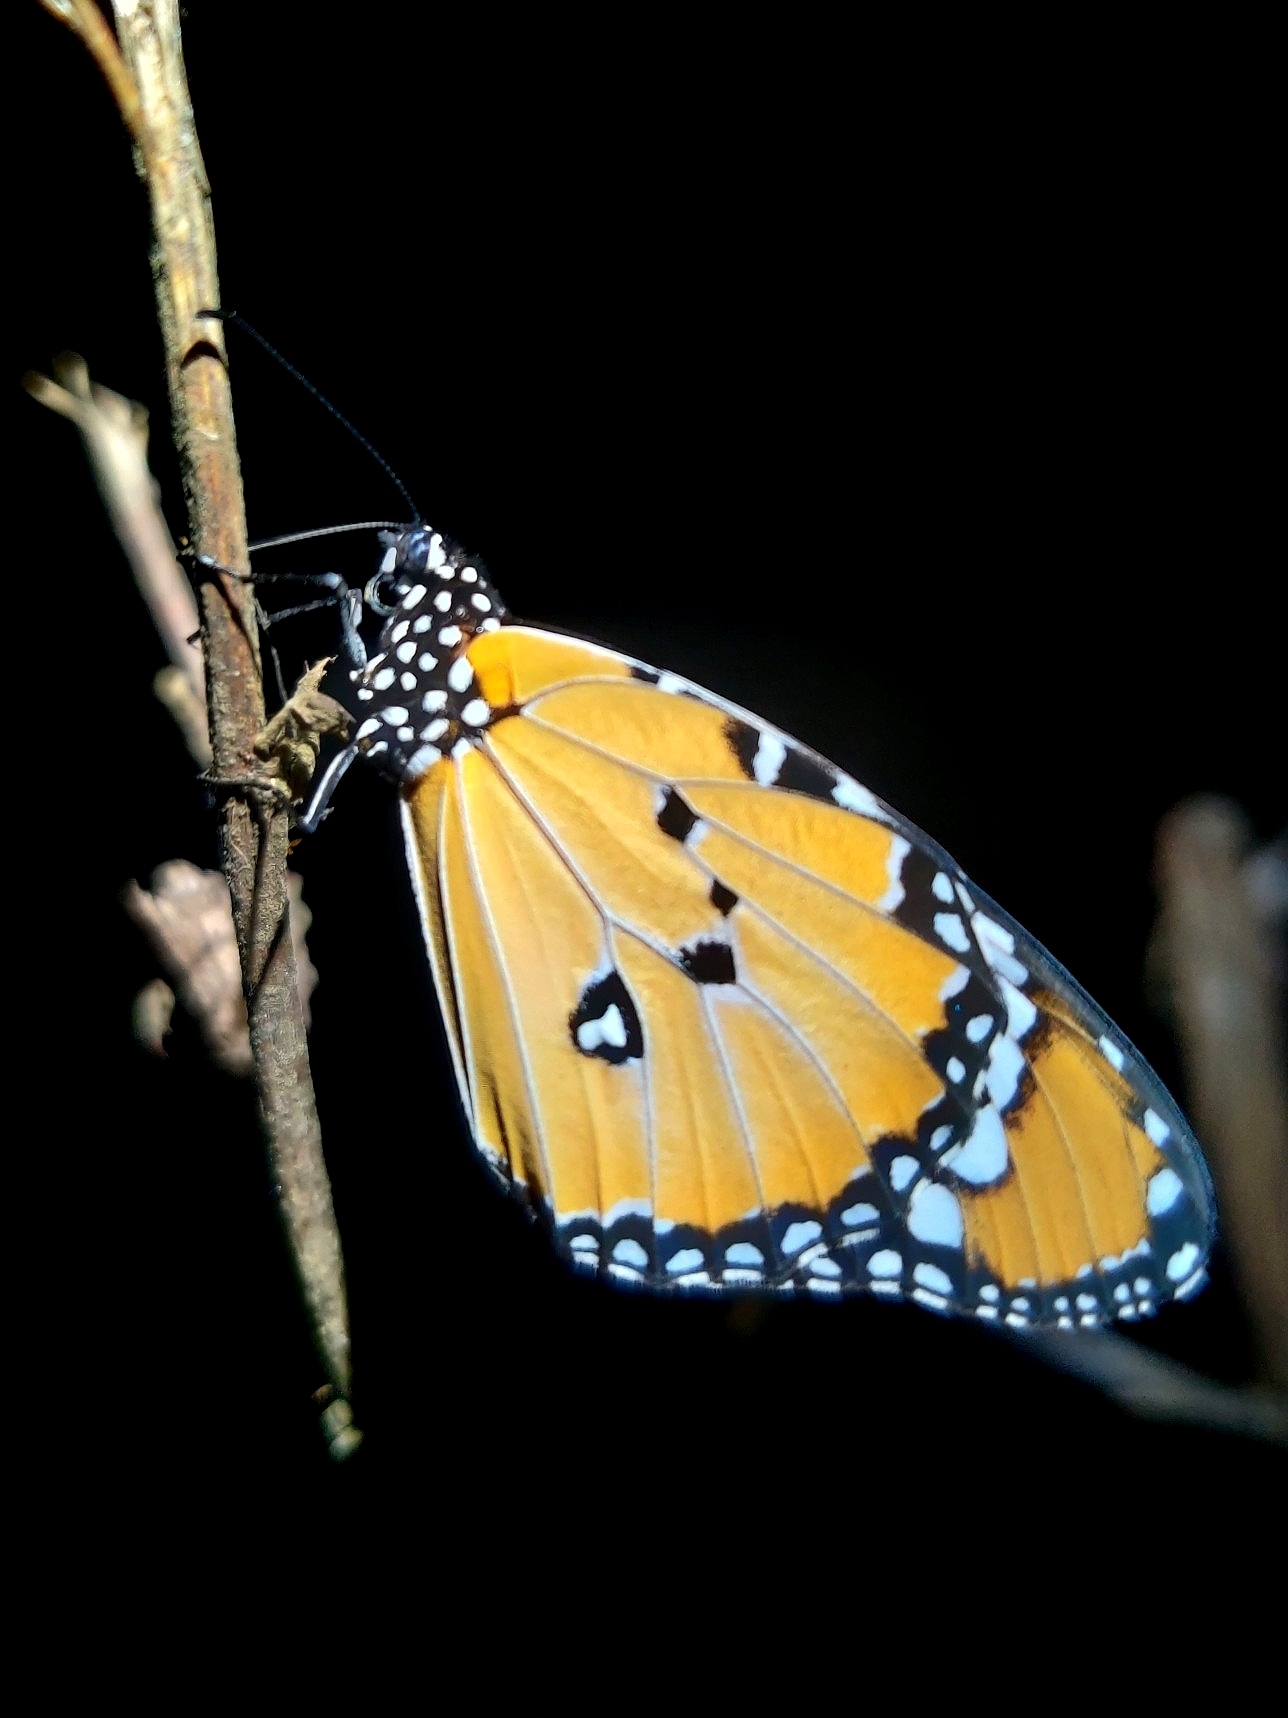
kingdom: Animalia
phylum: Arthropoda
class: Insecta
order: Lepidoptera
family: Nymphalidae
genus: Danaus
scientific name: Danaus chrysippus
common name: Plain tiger
